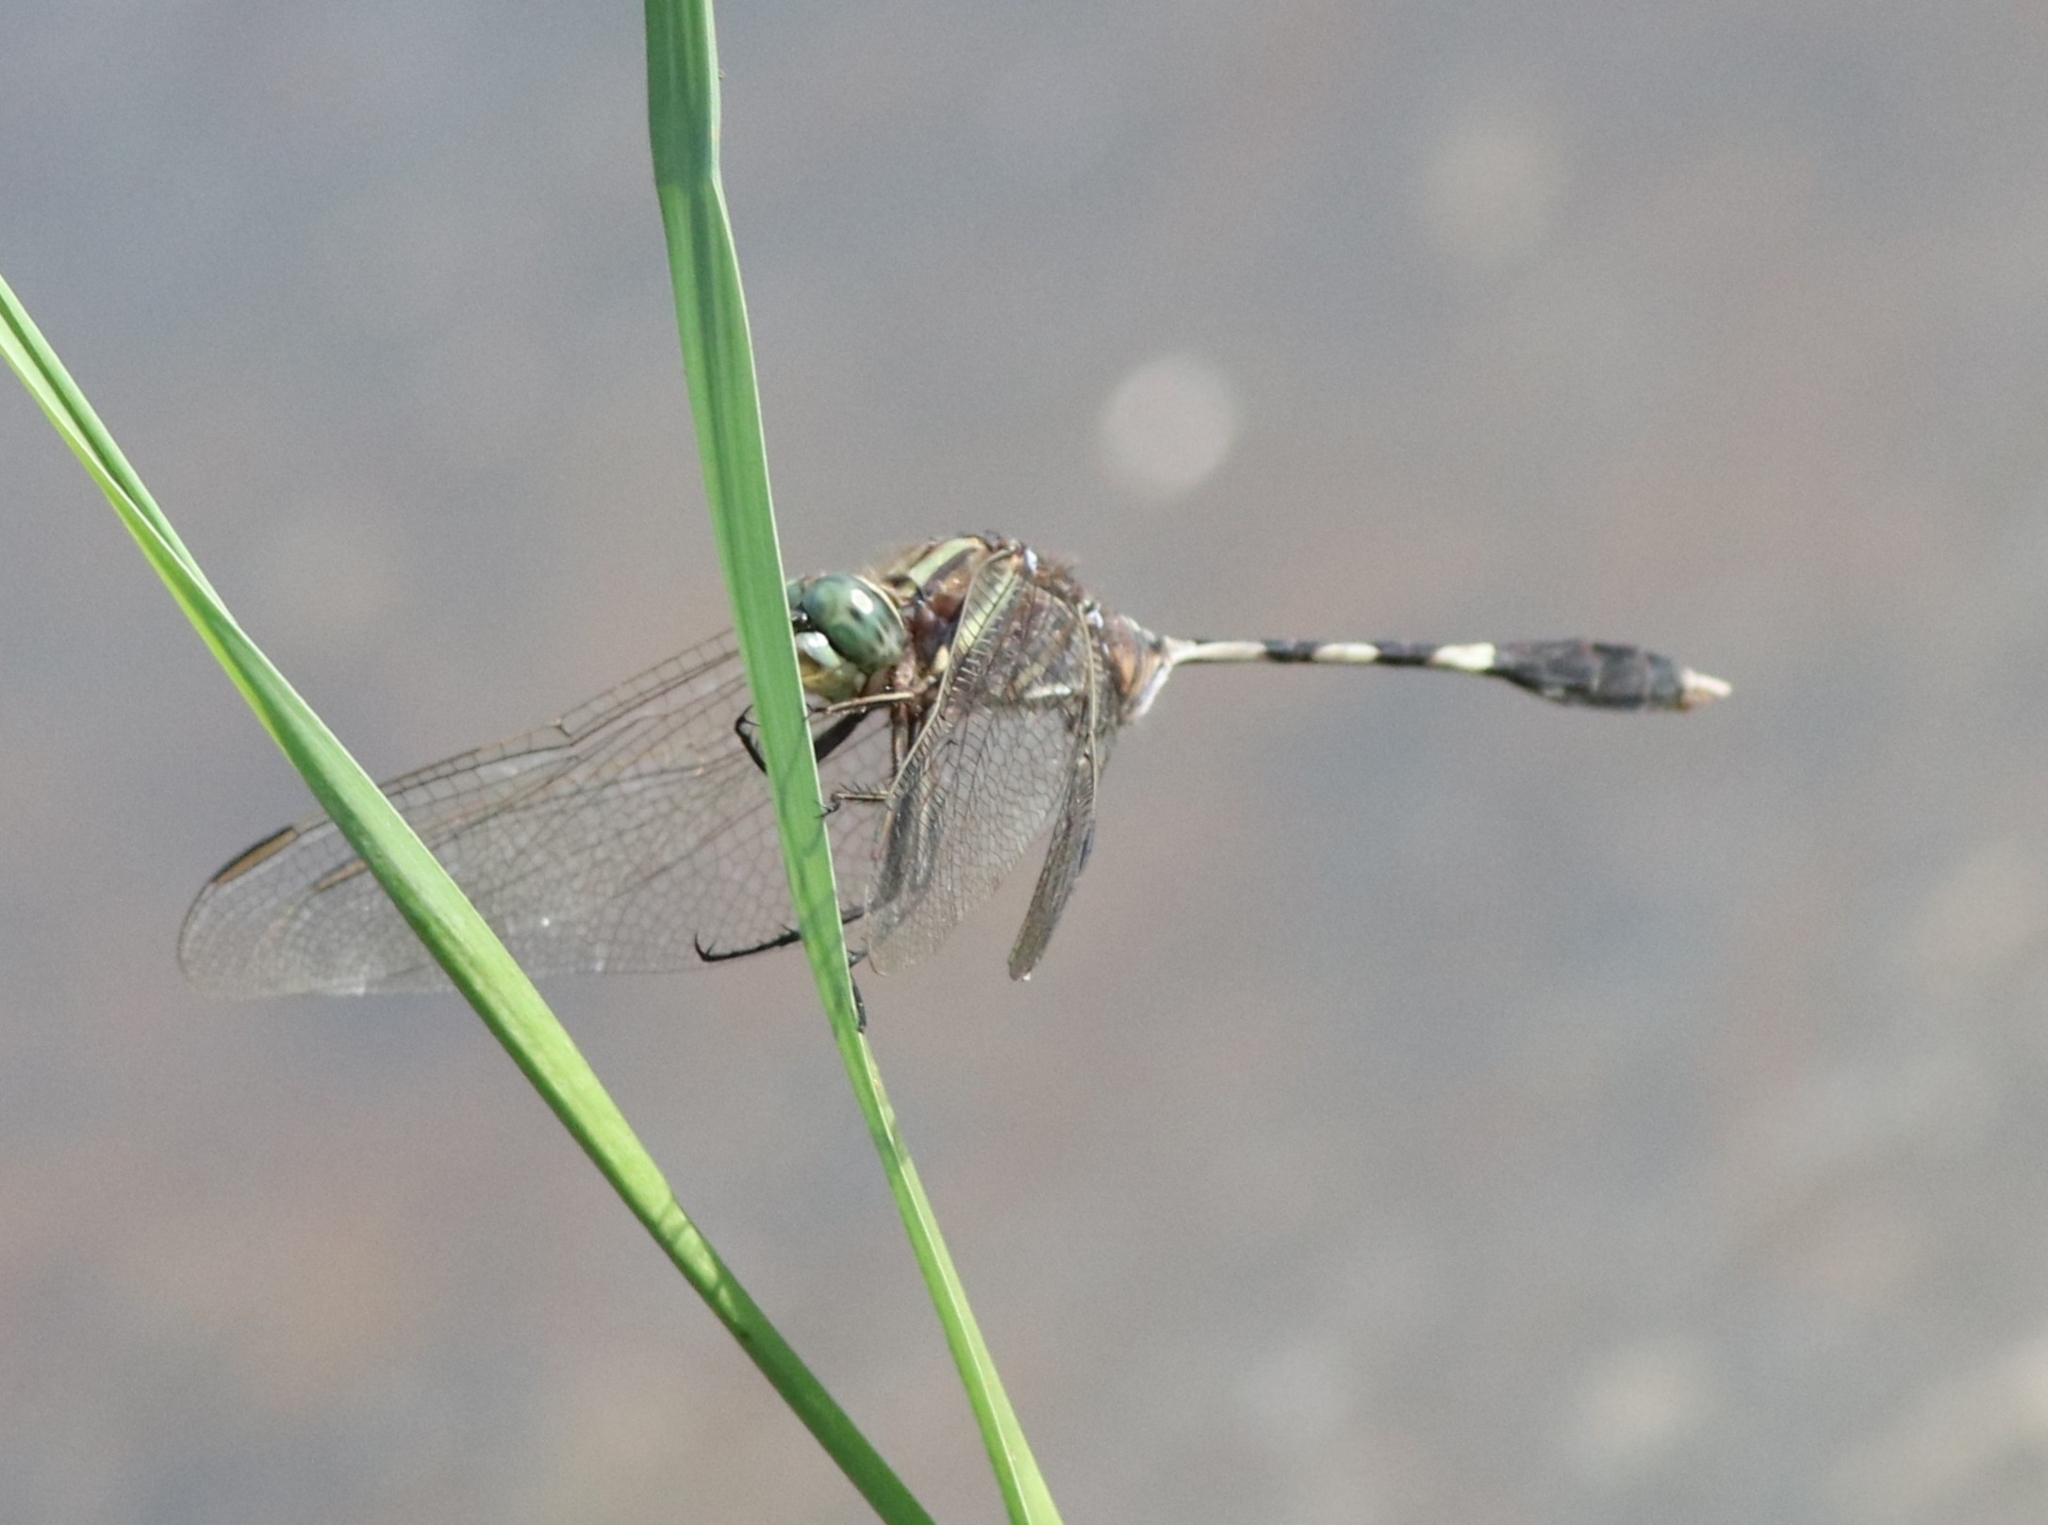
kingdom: Animalia
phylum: Arthropoda
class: Insecta
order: Odonata
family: Libellulidae
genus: Orthetrum
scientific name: Orthetrum sabina
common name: Slender skimmer
